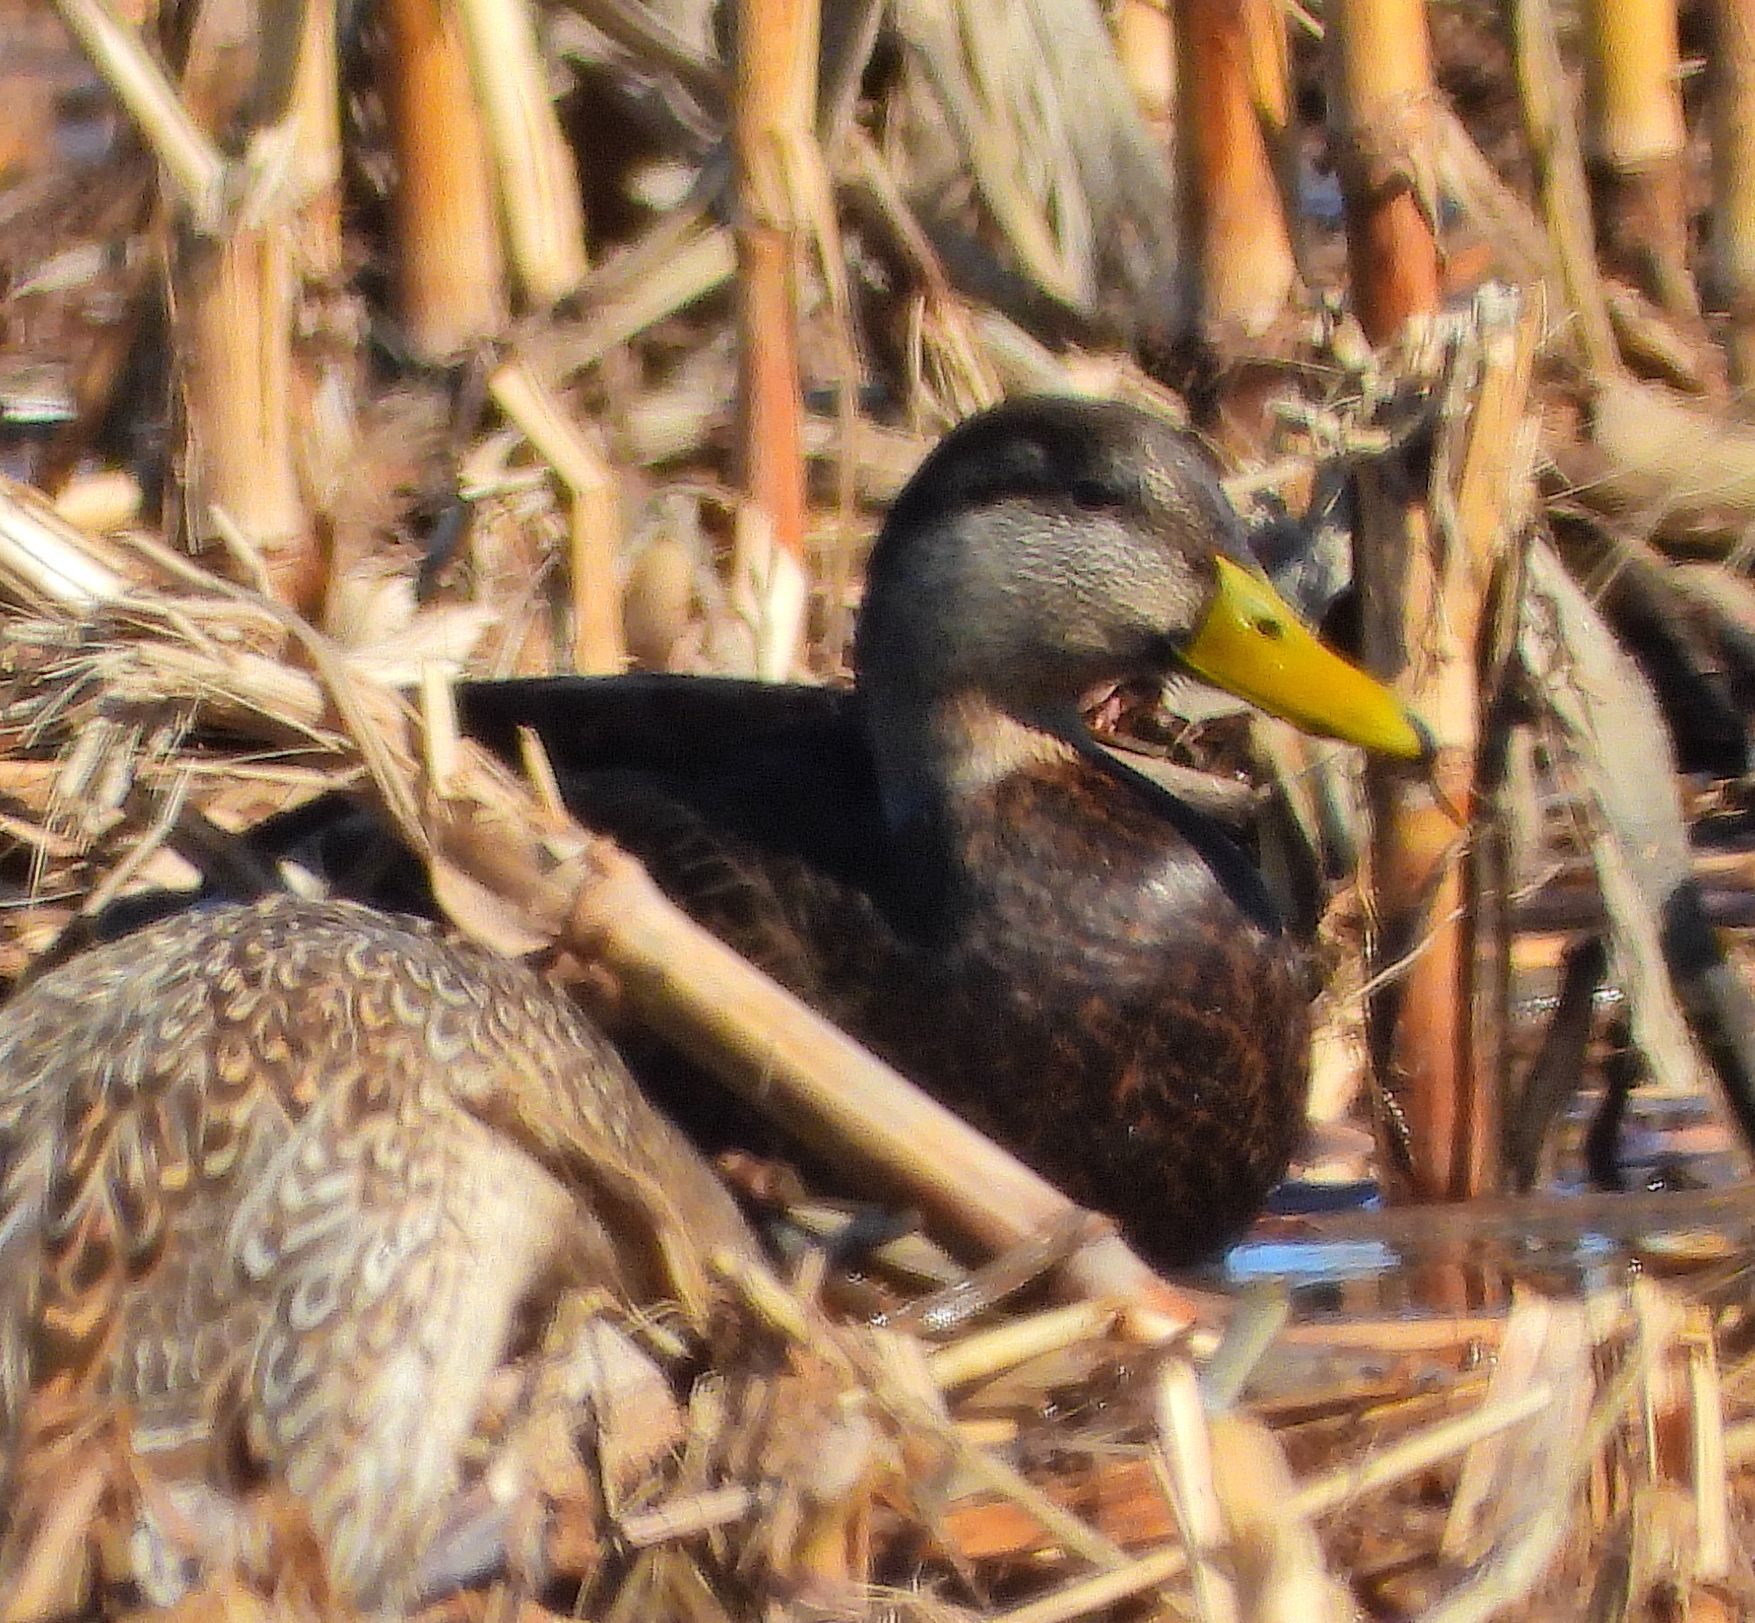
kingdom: Animalia
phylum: Chordata
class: Aves
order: Anseriformes
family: Anatidae
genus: Anas
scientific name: Anas rubripes
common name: American black duck
